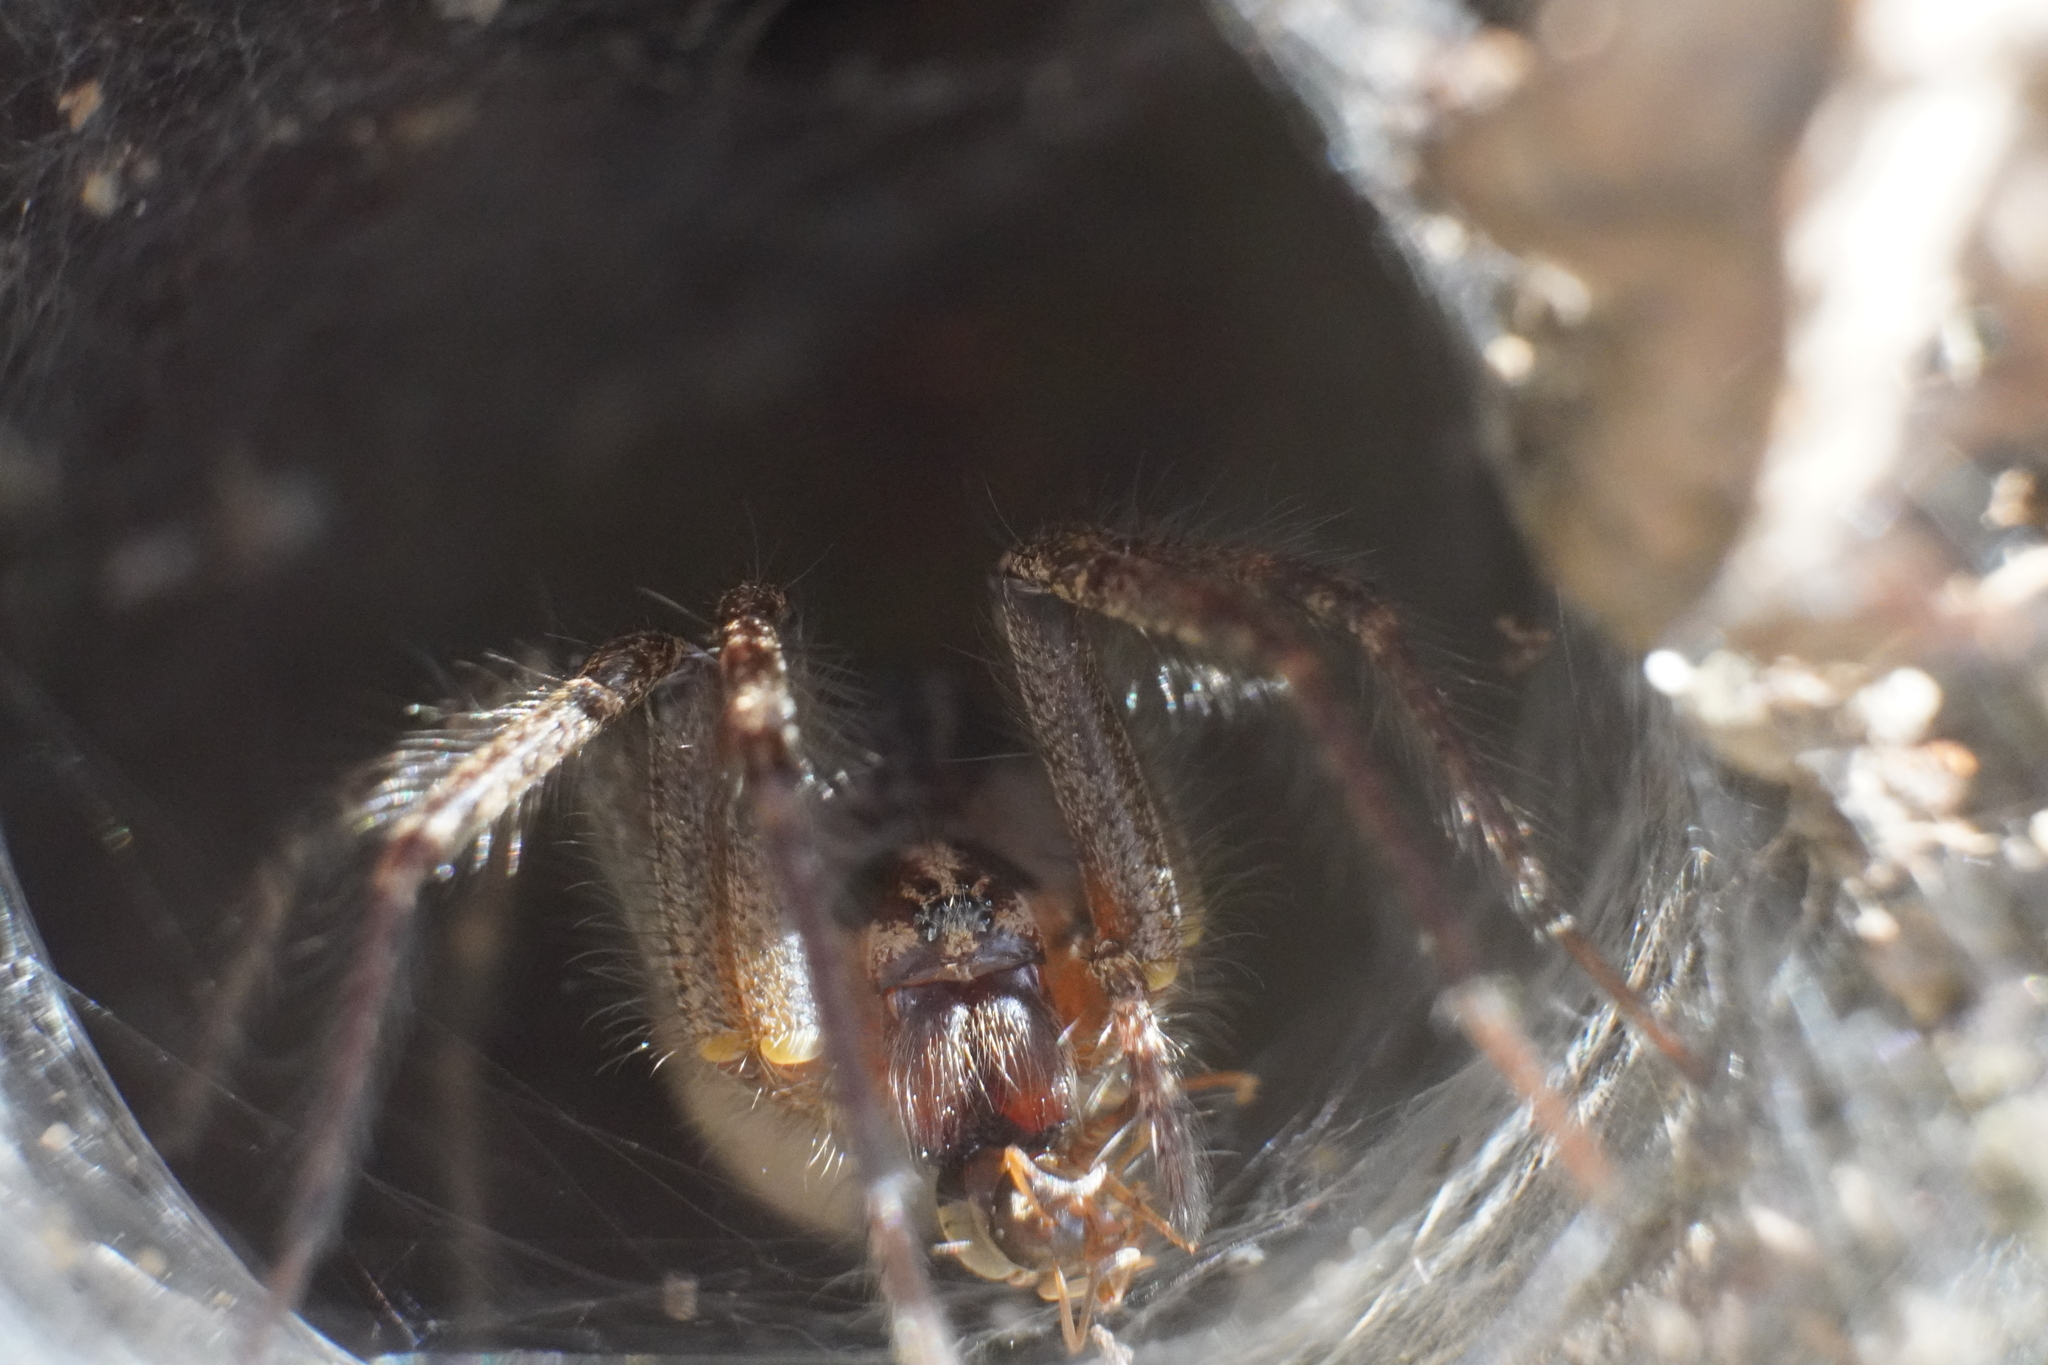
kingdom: Animalia
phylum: Arthropoda
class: Arachnida
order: Araneae
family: Agelenidae
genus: Agelenopsis
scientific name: Agelenopsis
